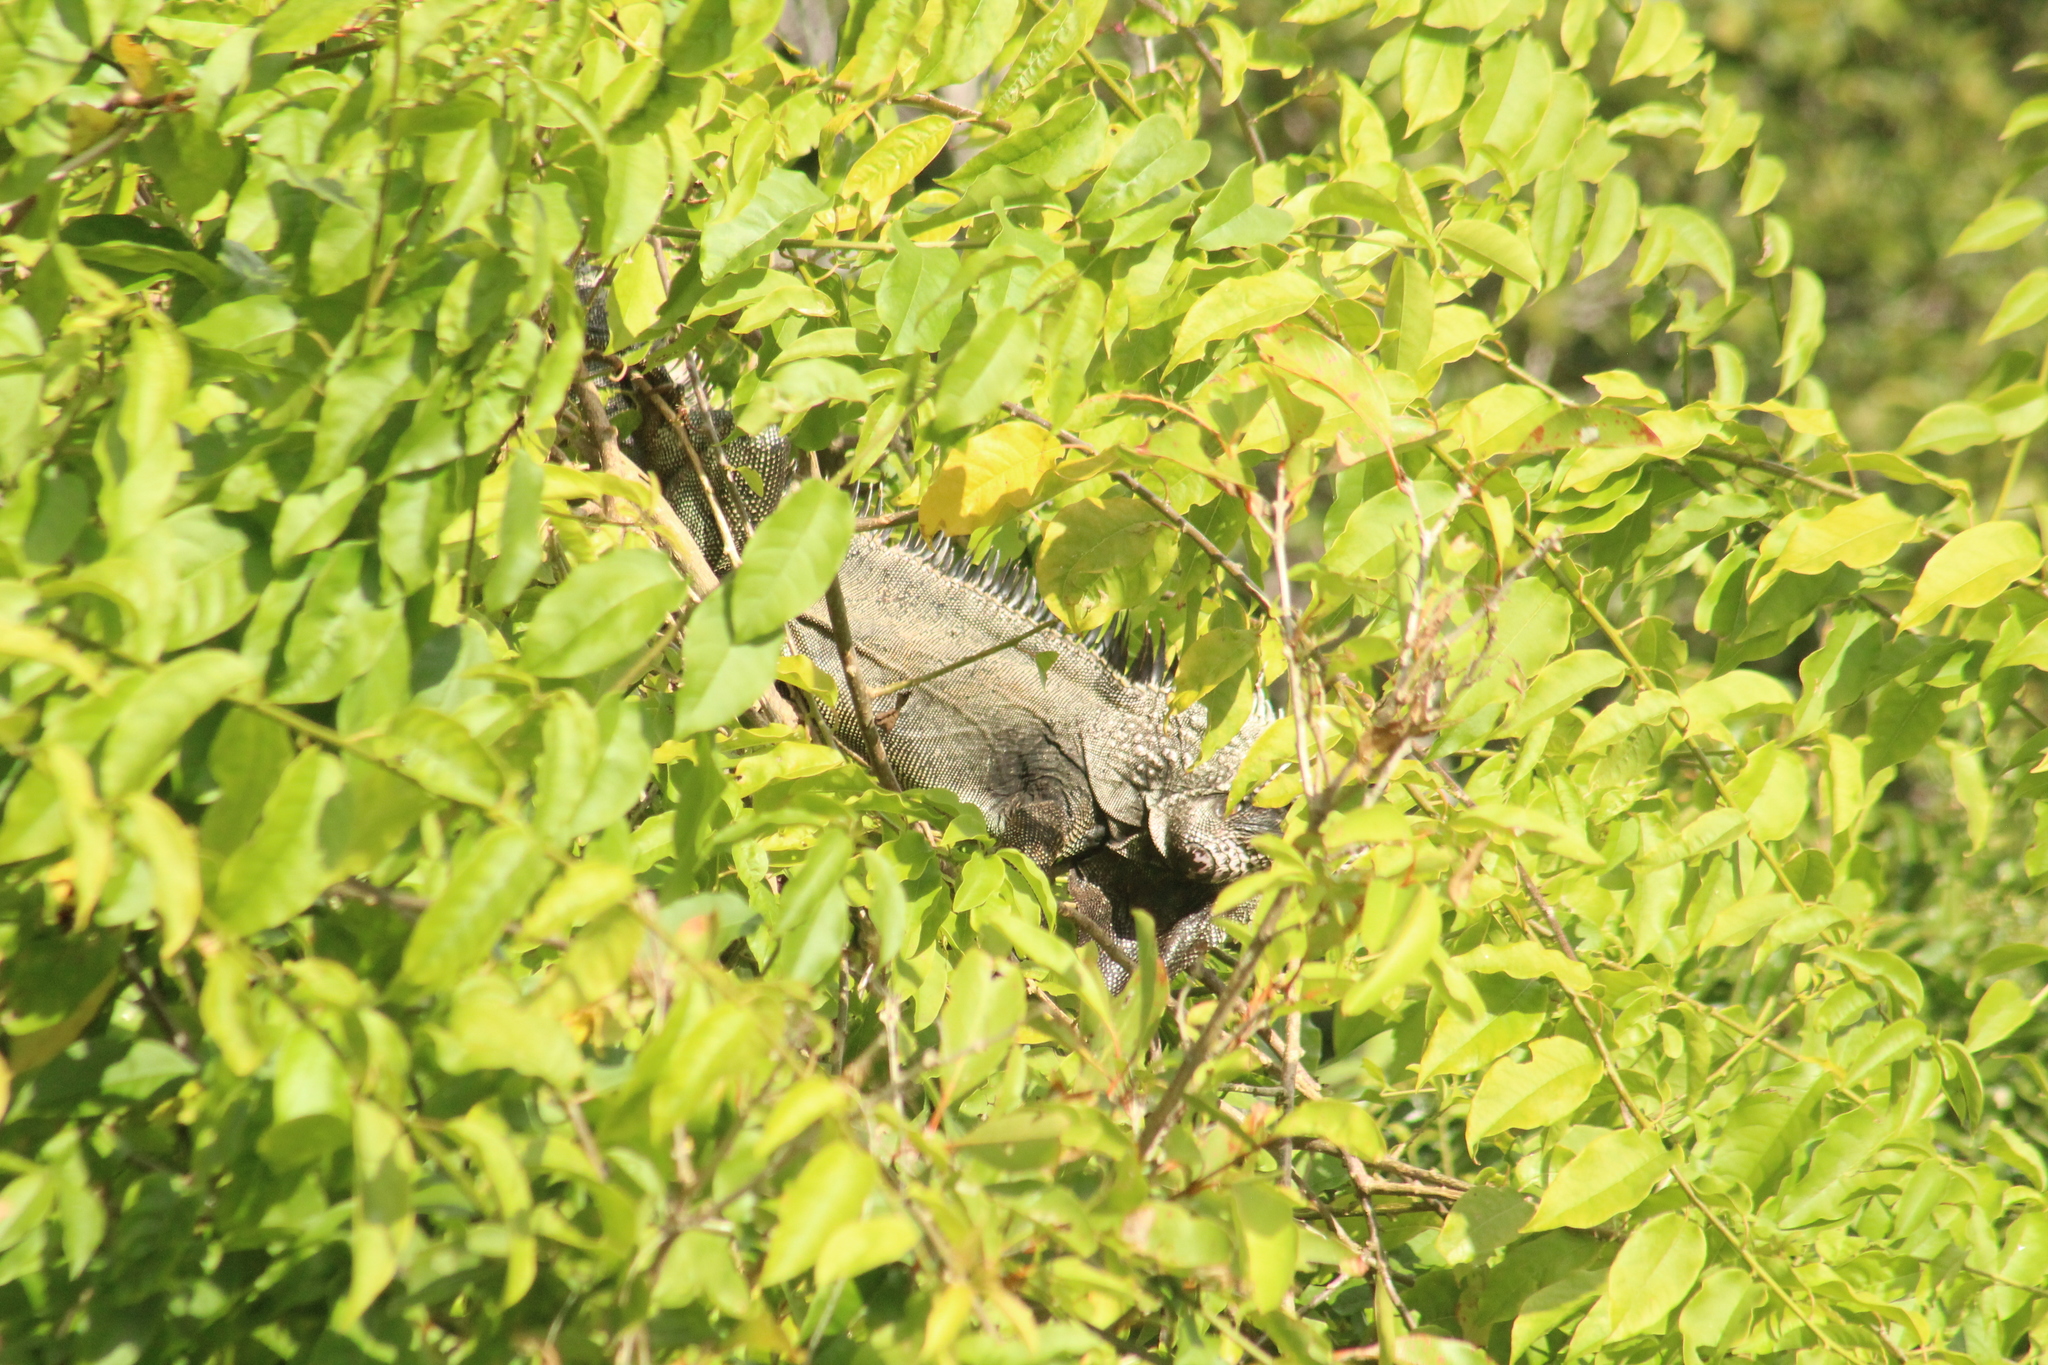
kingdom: Animalia
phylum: Chordata
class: Squamata
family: Iguanidae
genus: Iguana
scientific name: Iguana iguana
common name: Green iguana
